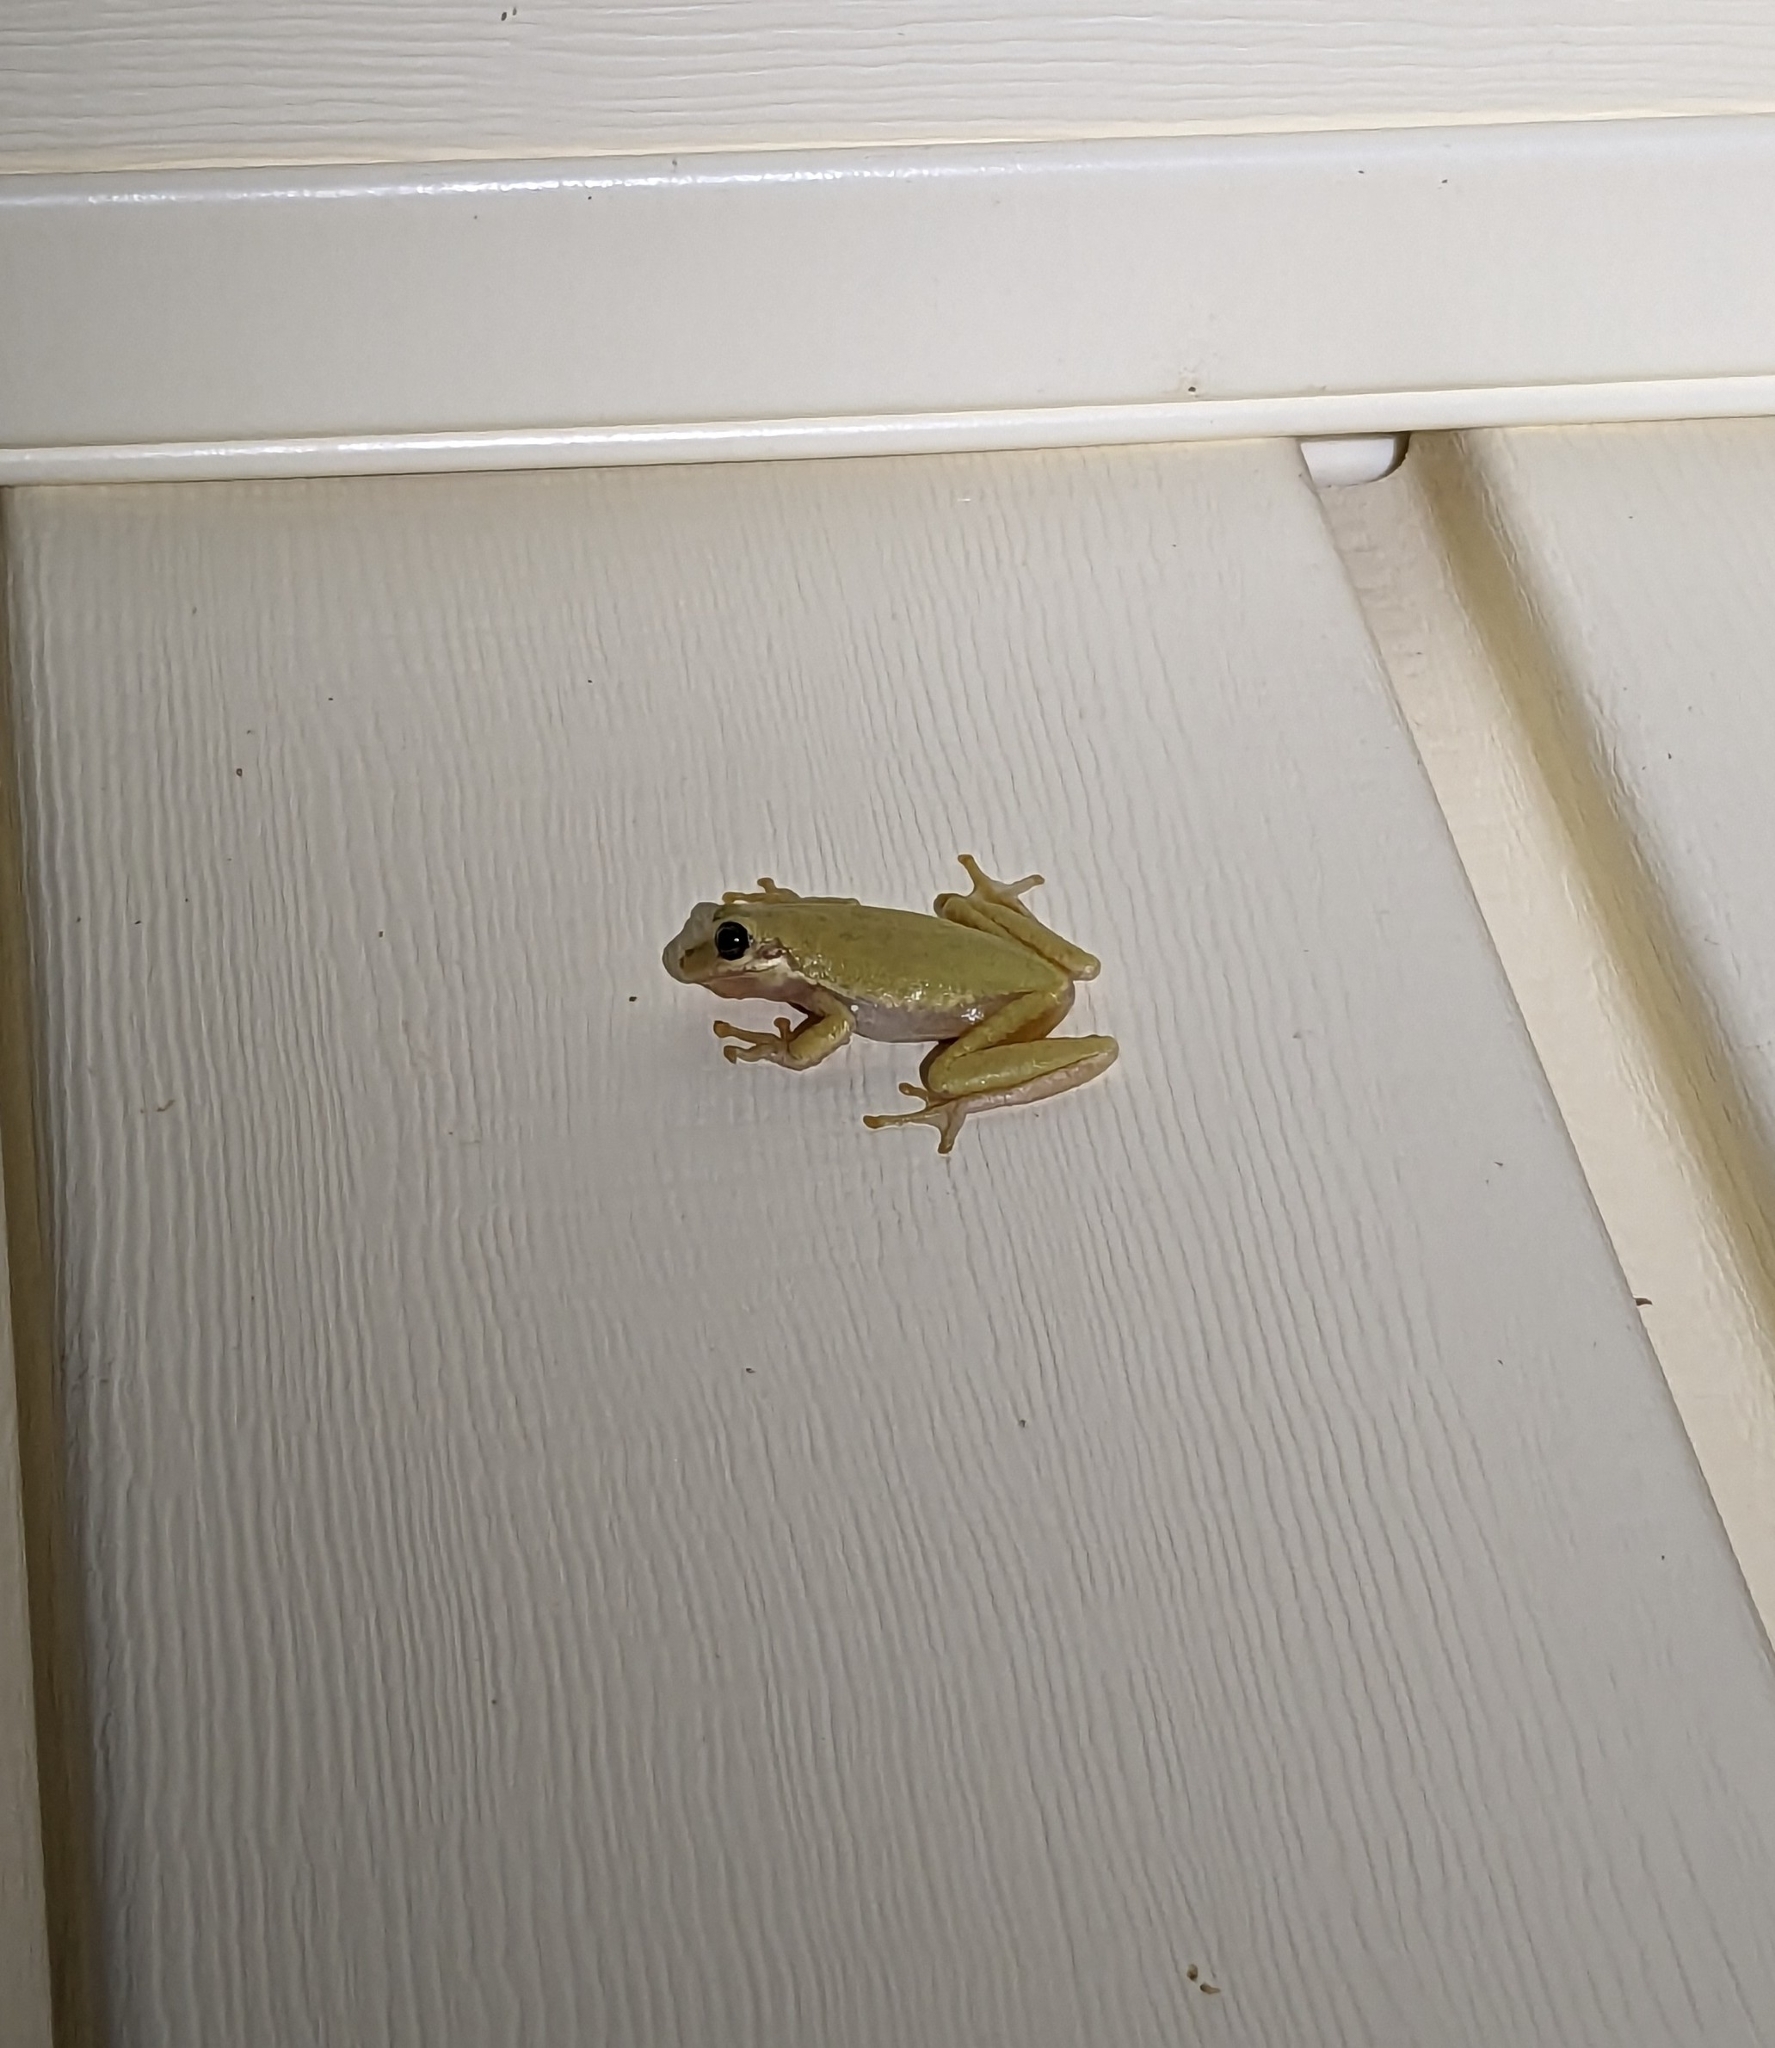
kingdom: Animalia
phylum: Chordata
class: Amphibia
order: Anura
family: Hylidae
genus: Dryophytes
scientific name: Dryophytes squirellus
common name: Squirrel treefrog
